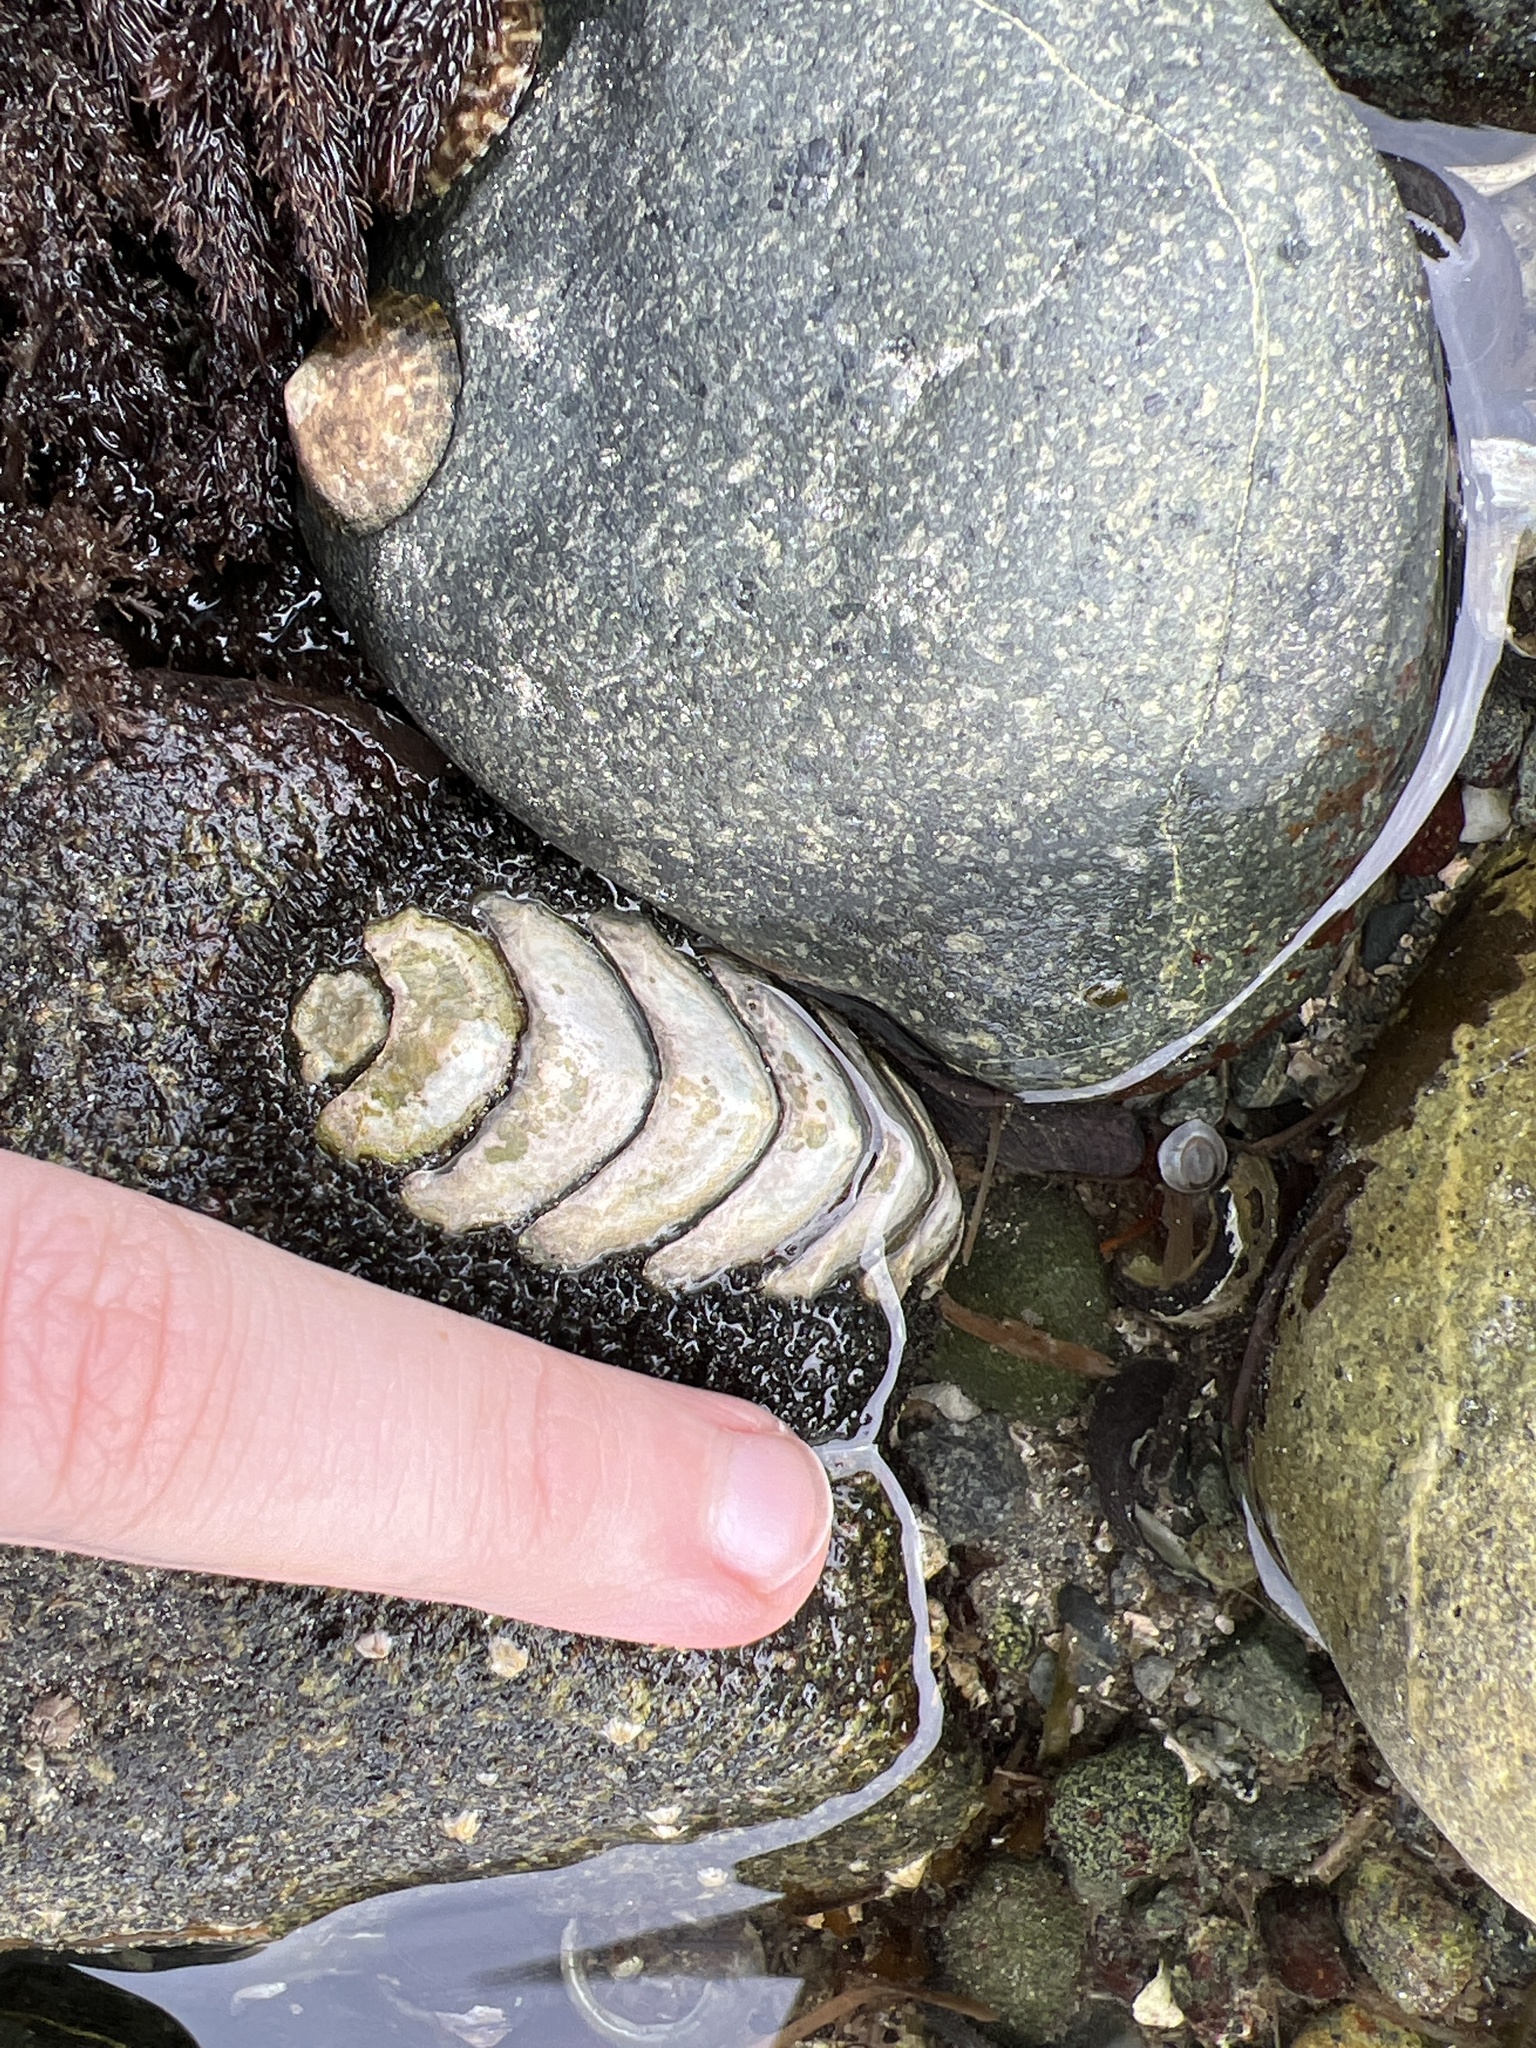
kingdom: Animalia
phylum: Mollusca
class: Polyplacophora
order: Chitonida
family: Mopaliidae
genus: Mopalia
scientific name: Mopalia muscosa
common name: Mossy chiton
